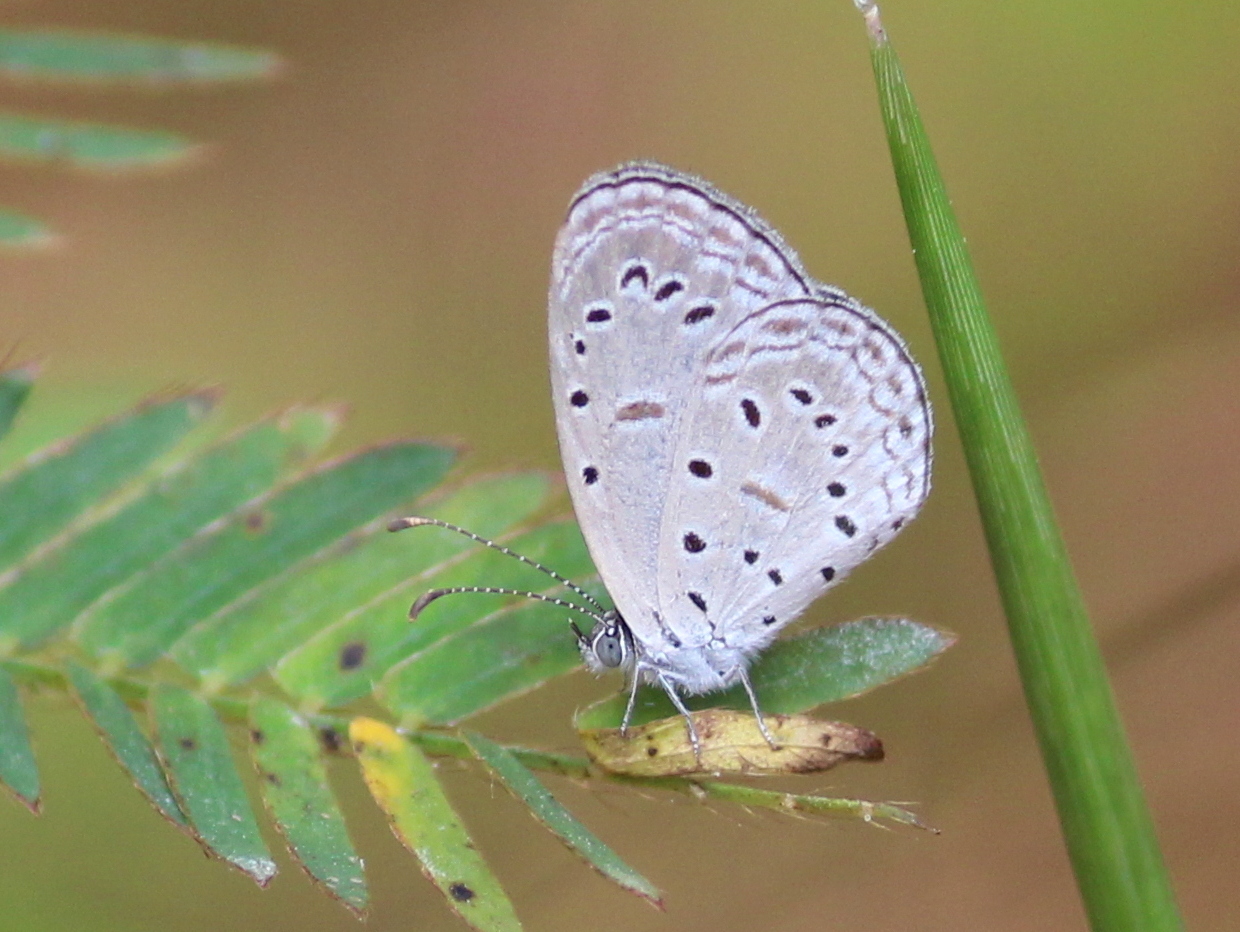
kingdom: Animalia
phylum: Arthropoda
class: Insecta
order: Lepidoptera
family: Lycaenidae
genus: Zizula
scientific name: Zizula hylax
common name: Gaika blue
